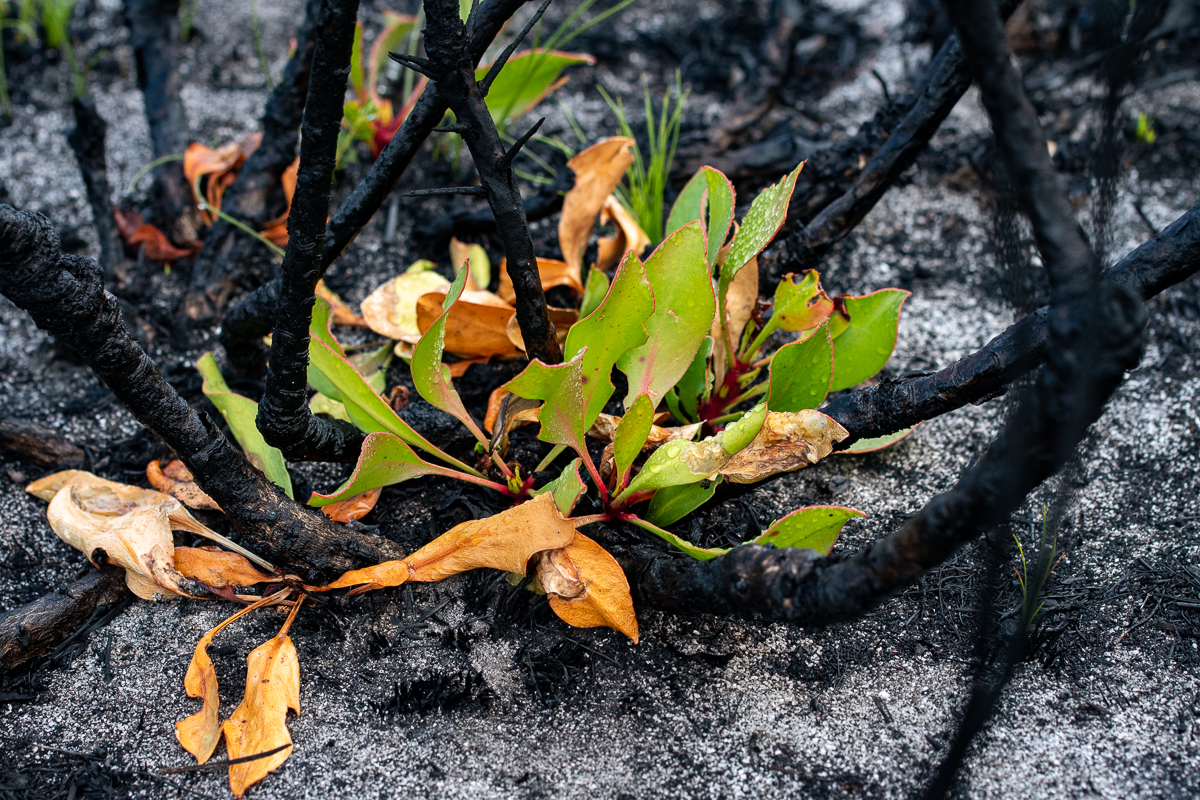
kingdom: Plantae
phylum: Tracheophyta
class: Magnoliopsida
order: Proteales
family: Proteaceae
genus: Protea
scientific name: Protea cynaroides
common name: King protea
